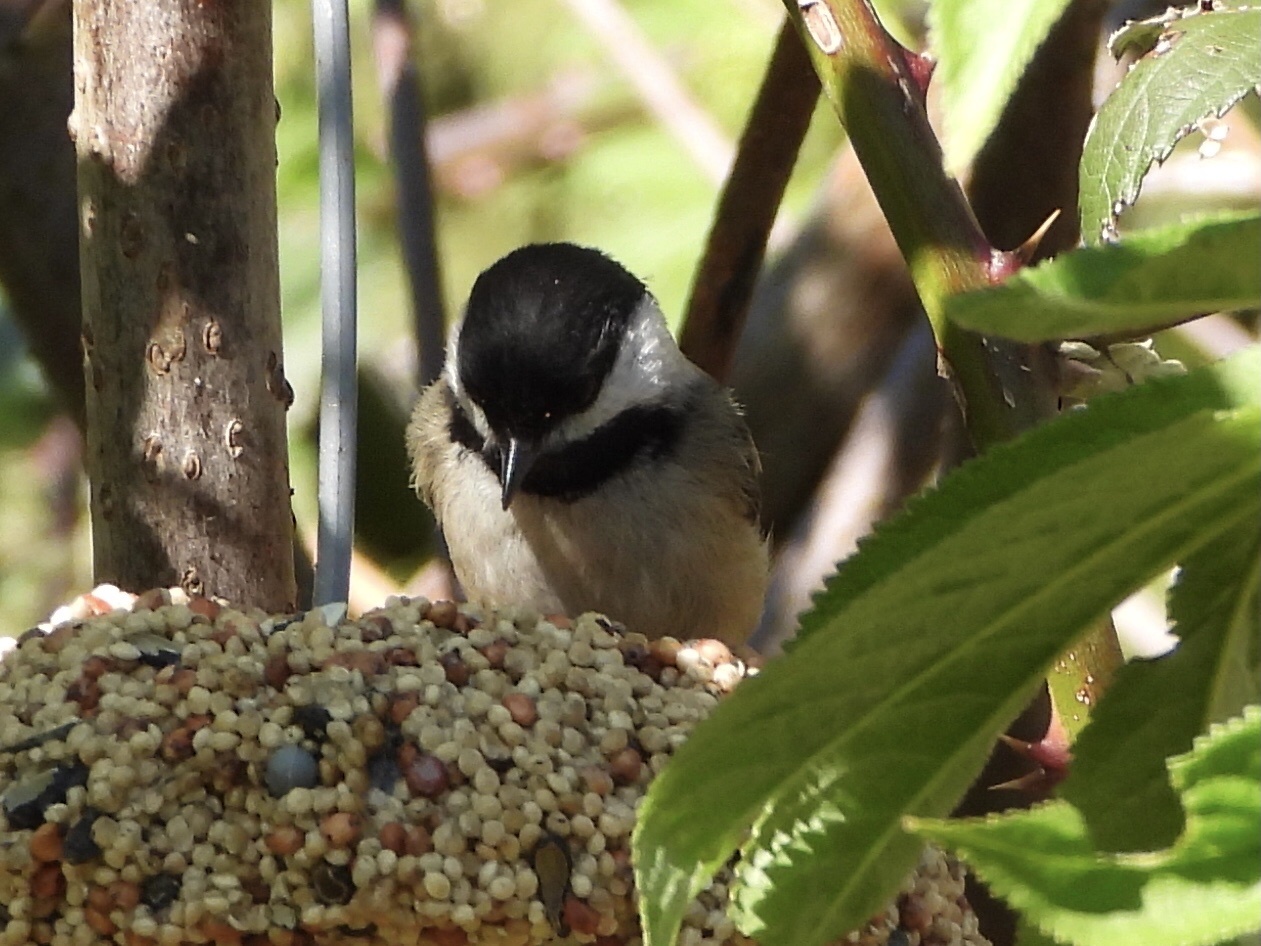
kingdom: Animalia
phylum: Chordata
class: Aves
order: Passeriformes
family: Paridae
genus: Poecile
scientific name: Poecile atricapillus
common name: Black-capped chickadee
